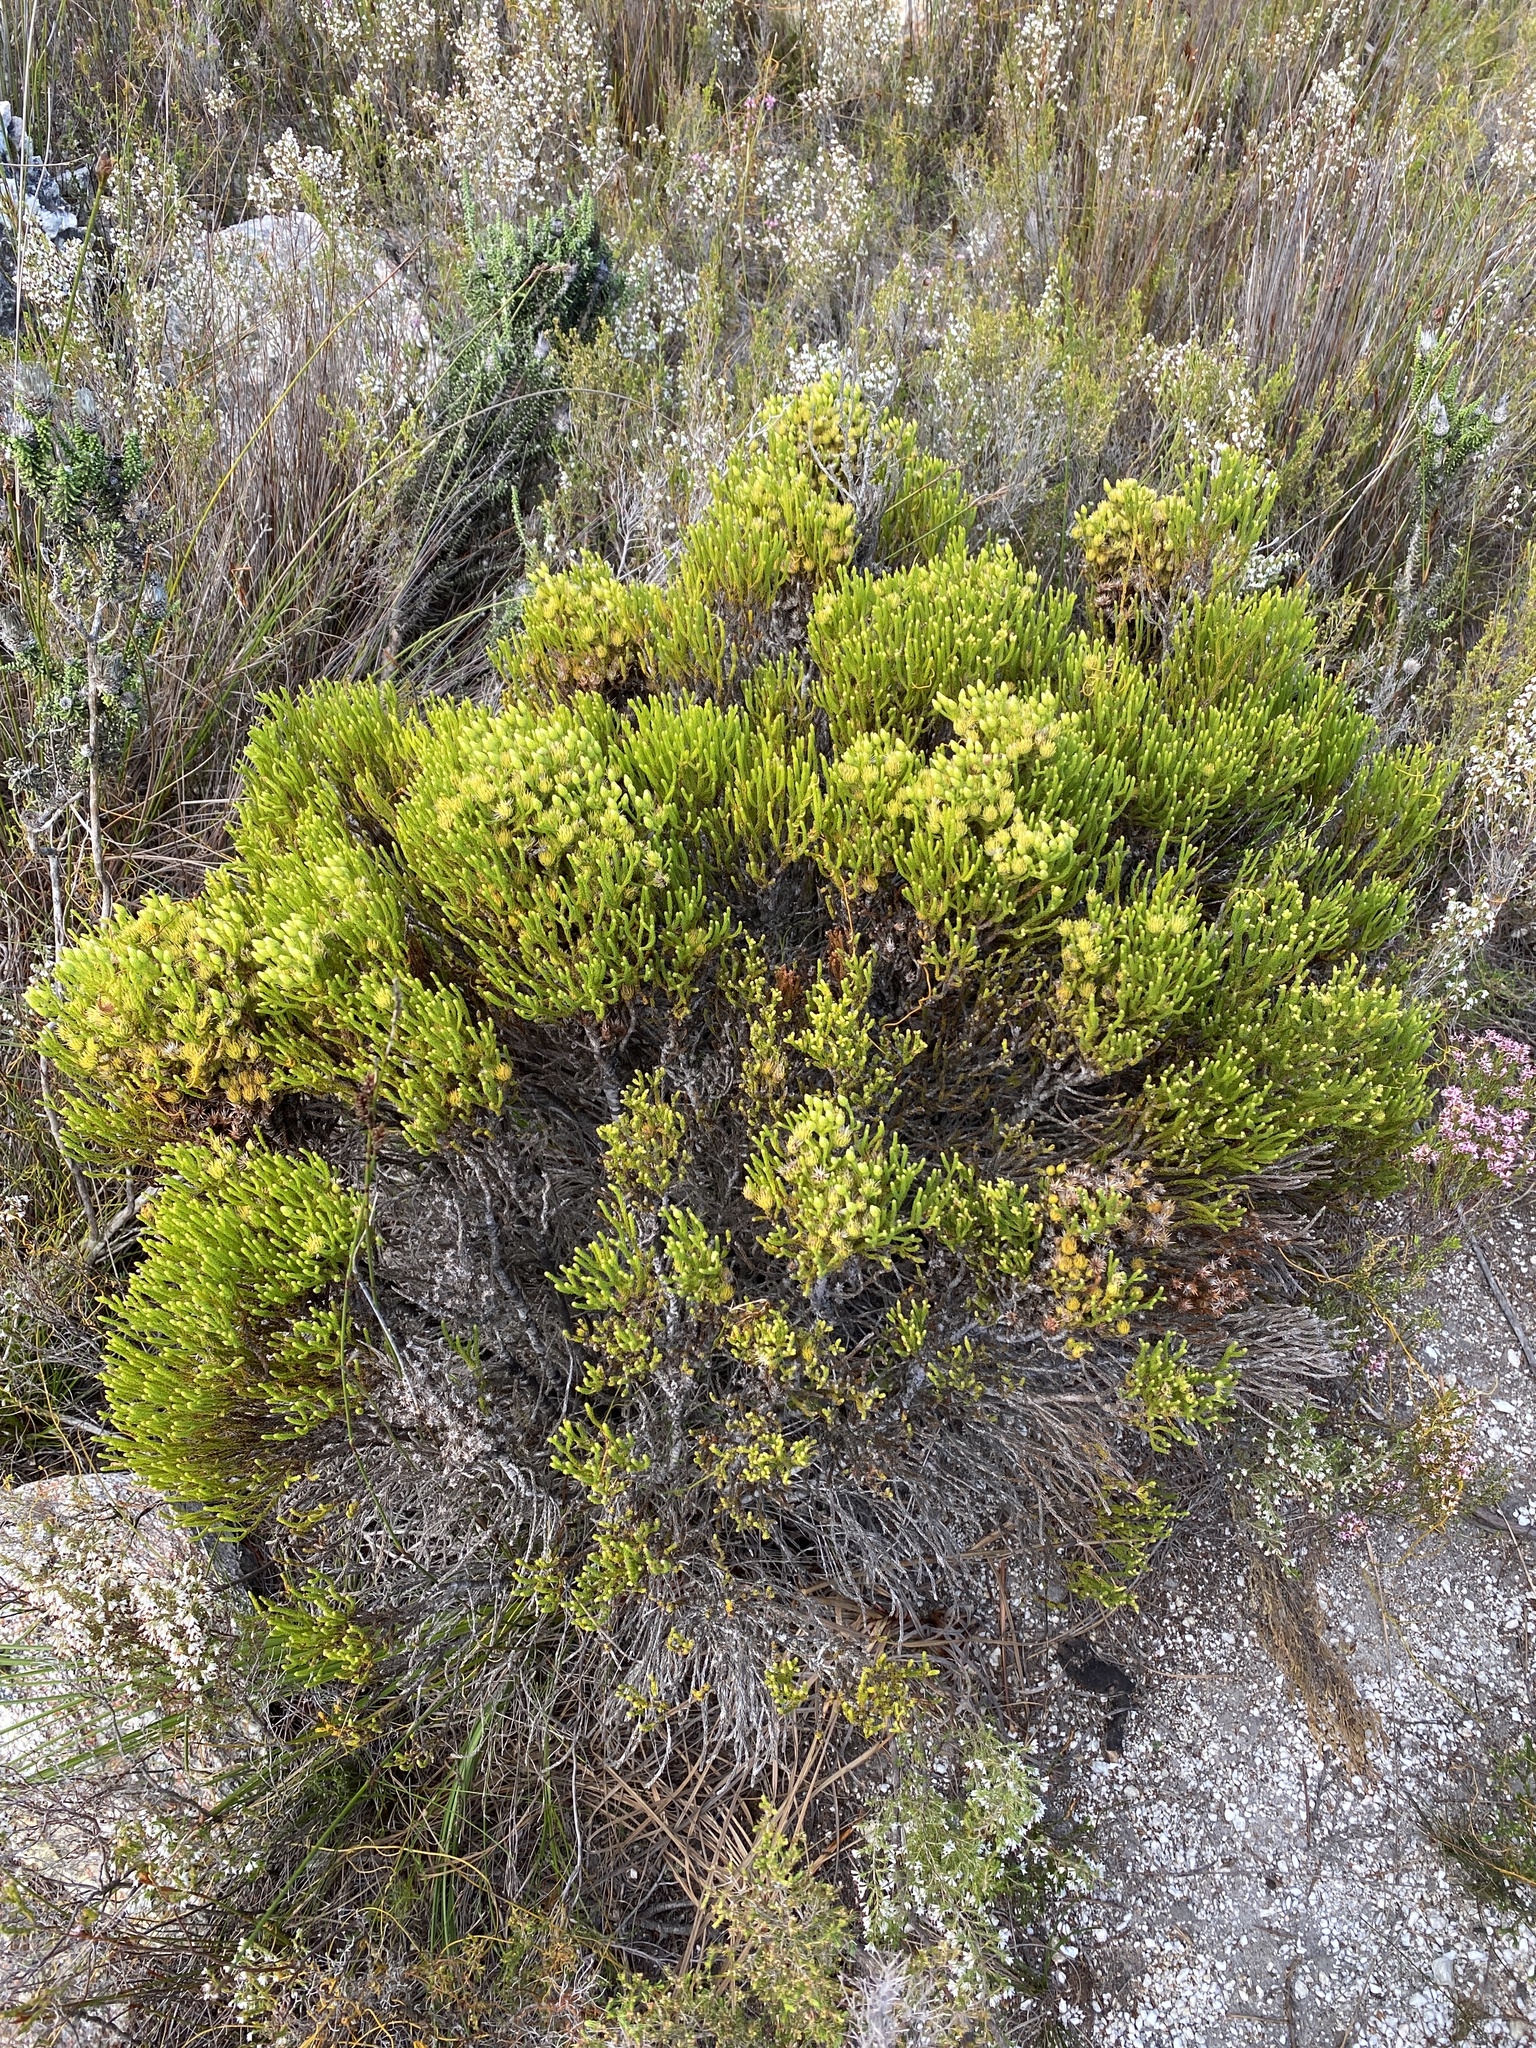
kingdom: Plantae
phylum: Tracheophyta
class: Magnoliopsida
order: Bruniales
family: Bruniaceae
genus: Brunia
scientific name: Brunia paleacea
